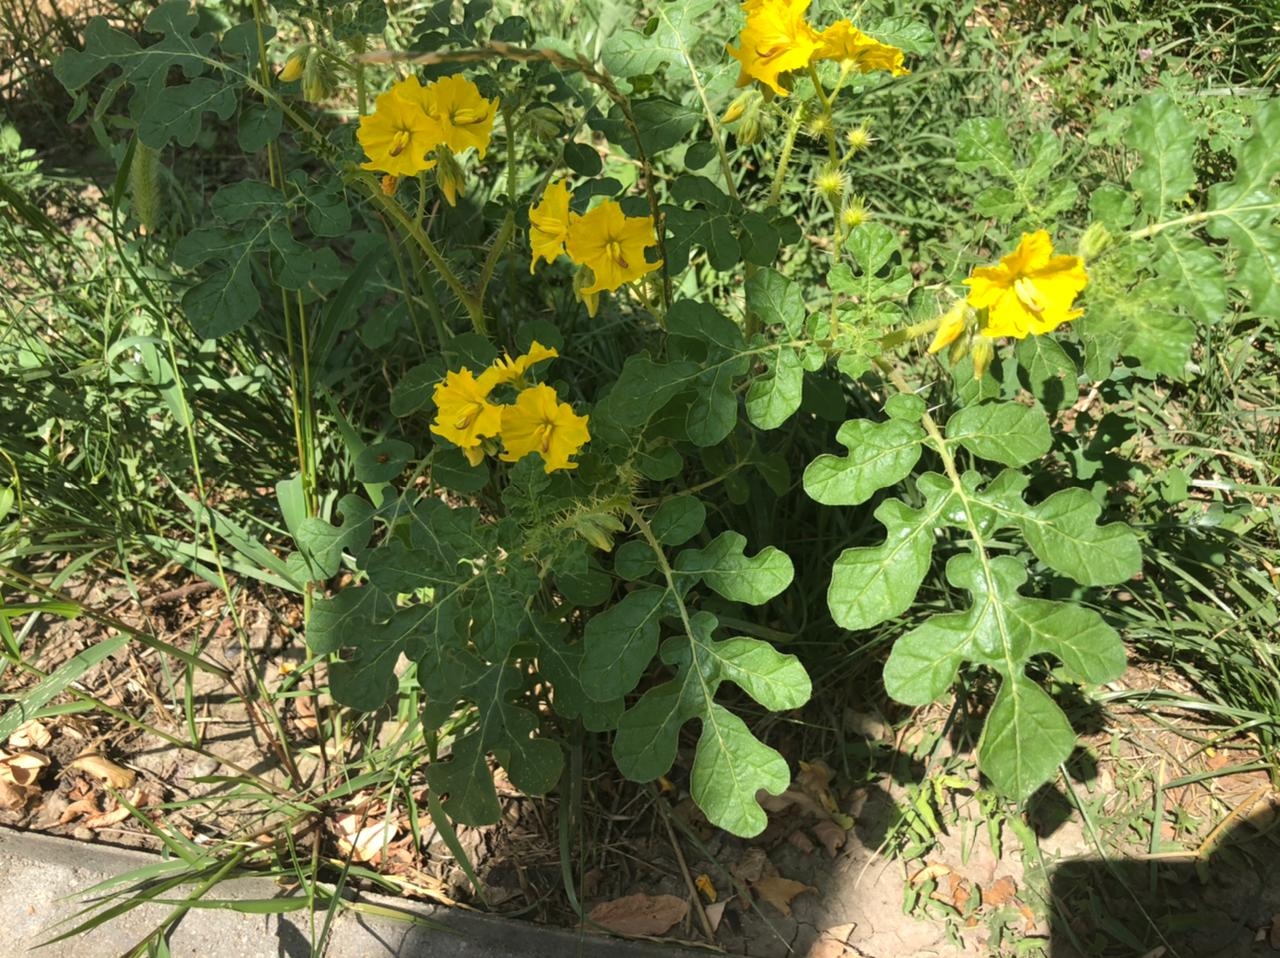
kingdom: Plantae
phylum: Tracheophyta
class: Magnoliopsida
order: Solanales
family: Solanaceae
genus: Solanum
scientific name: Solanum angustifolium
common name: Buffalobur nightshade
